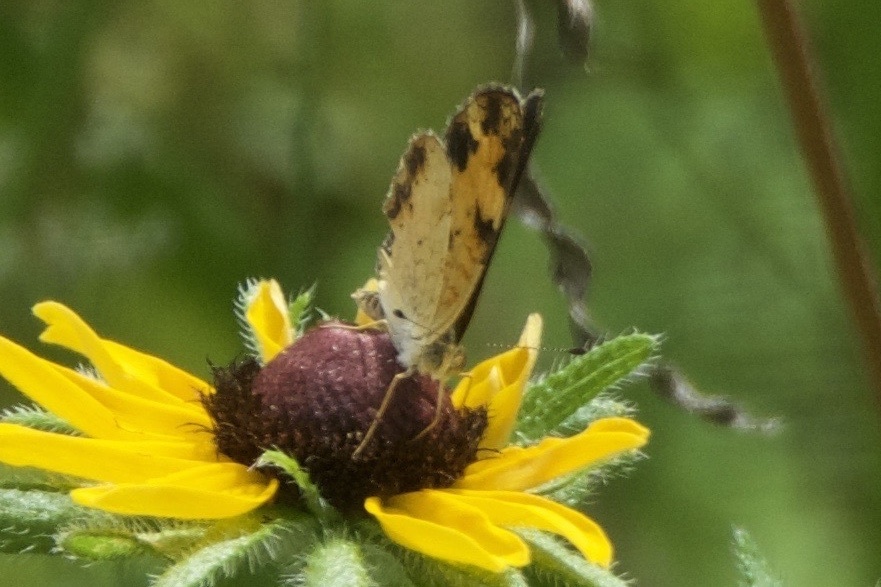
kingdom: Animalia
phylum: Arthropoda
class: Insecta
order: Lepidoptera
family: Nymphalidae
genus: Phyciodes
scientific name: Phyciodes tharos
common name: Pearl crescent
